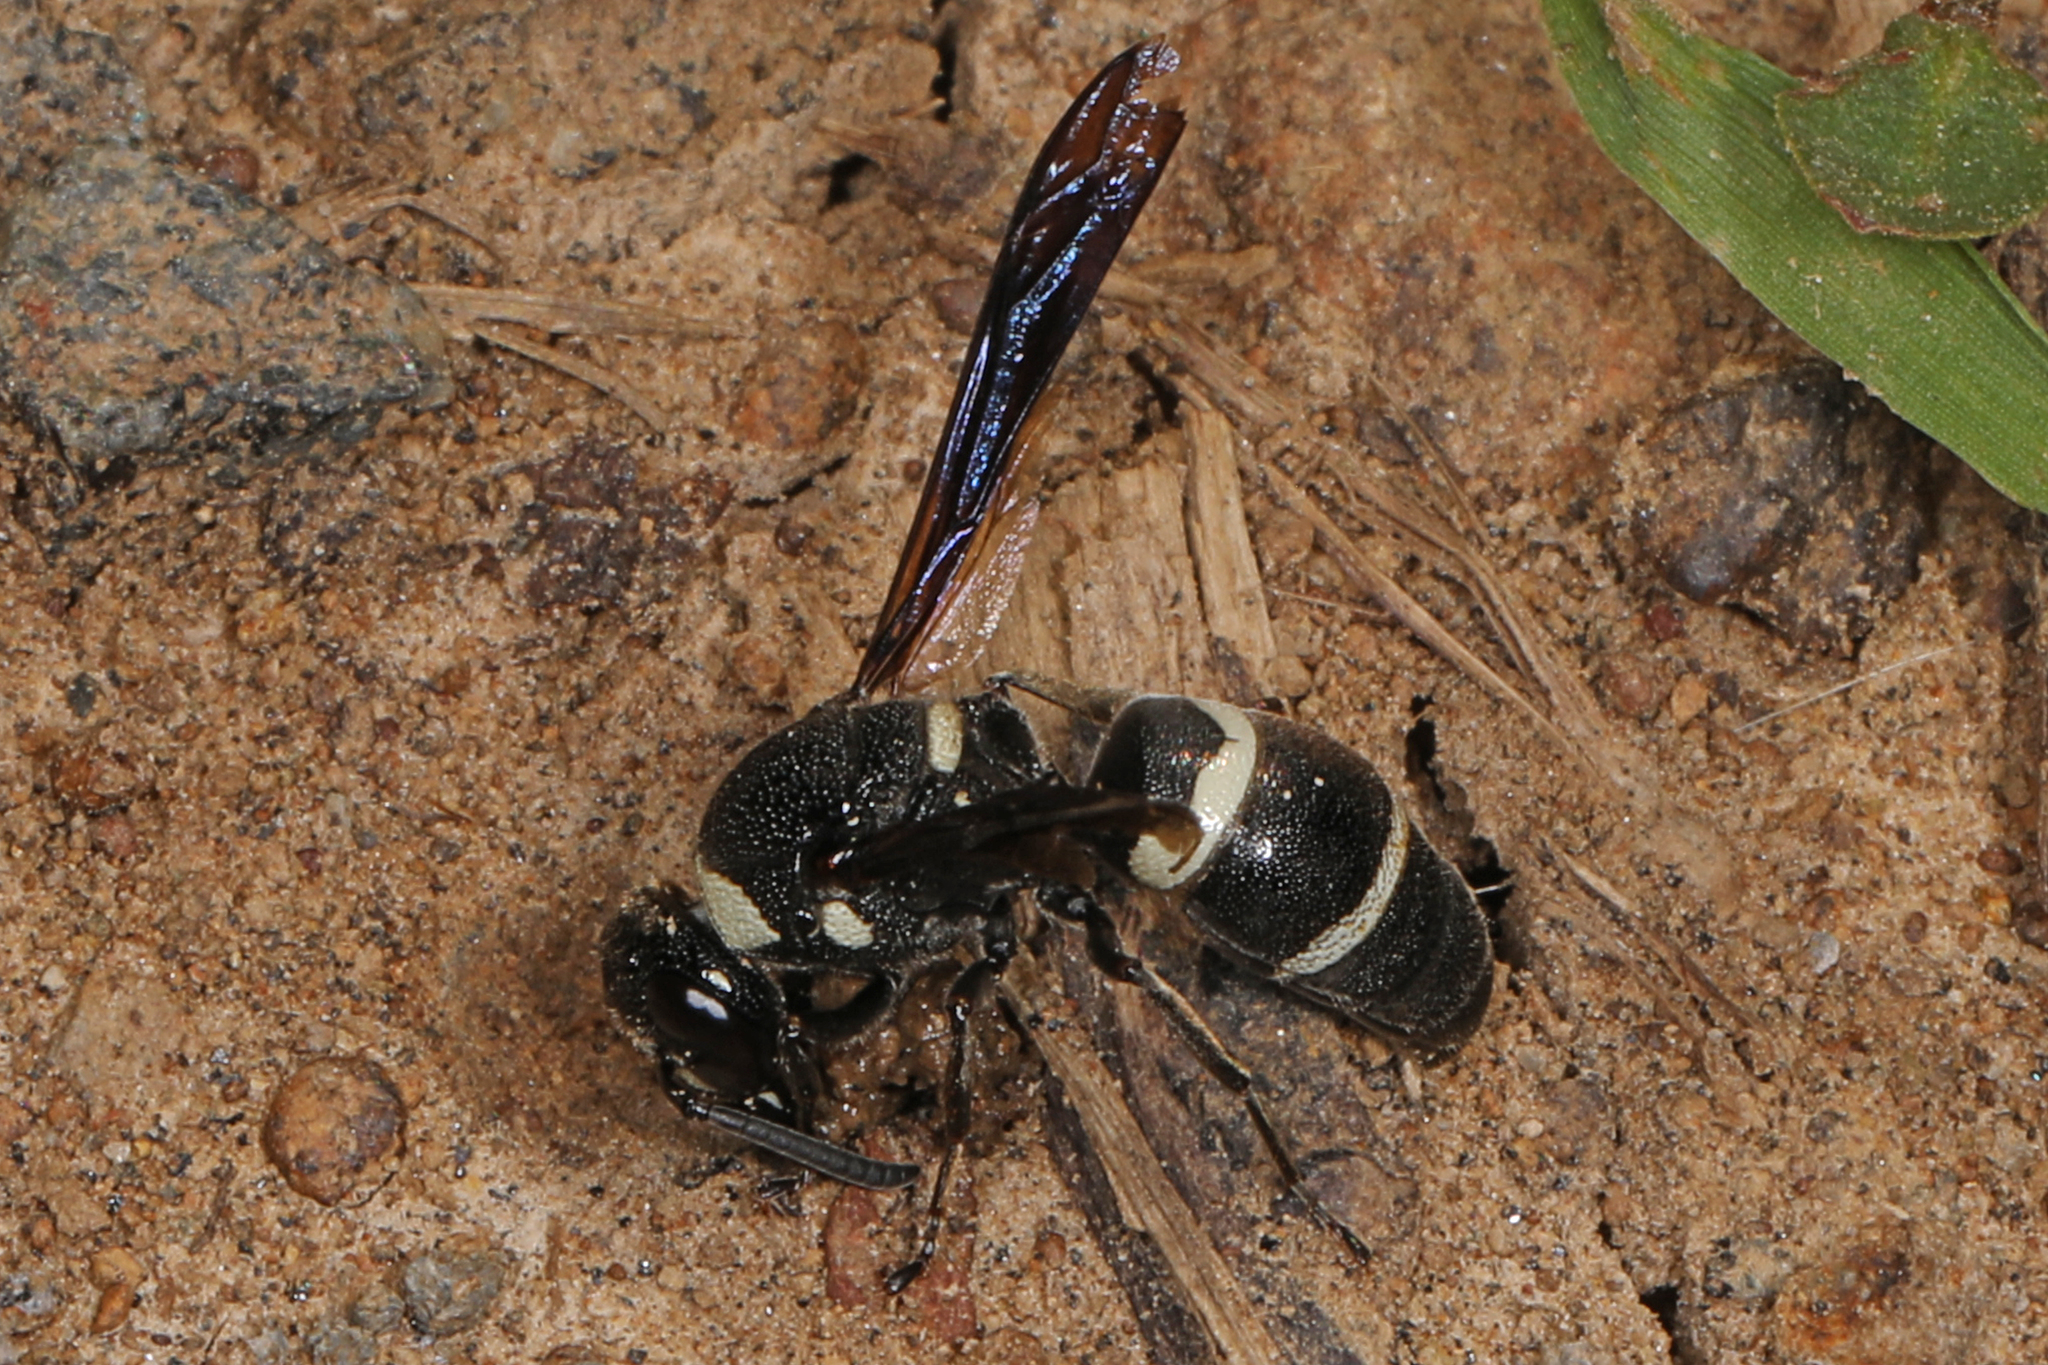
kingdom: Animalia
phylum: Arthropoda
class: Insecta
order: Hymenoptera
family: Eumenidae
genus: Euodynerus
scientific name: Euodynerus megaera
